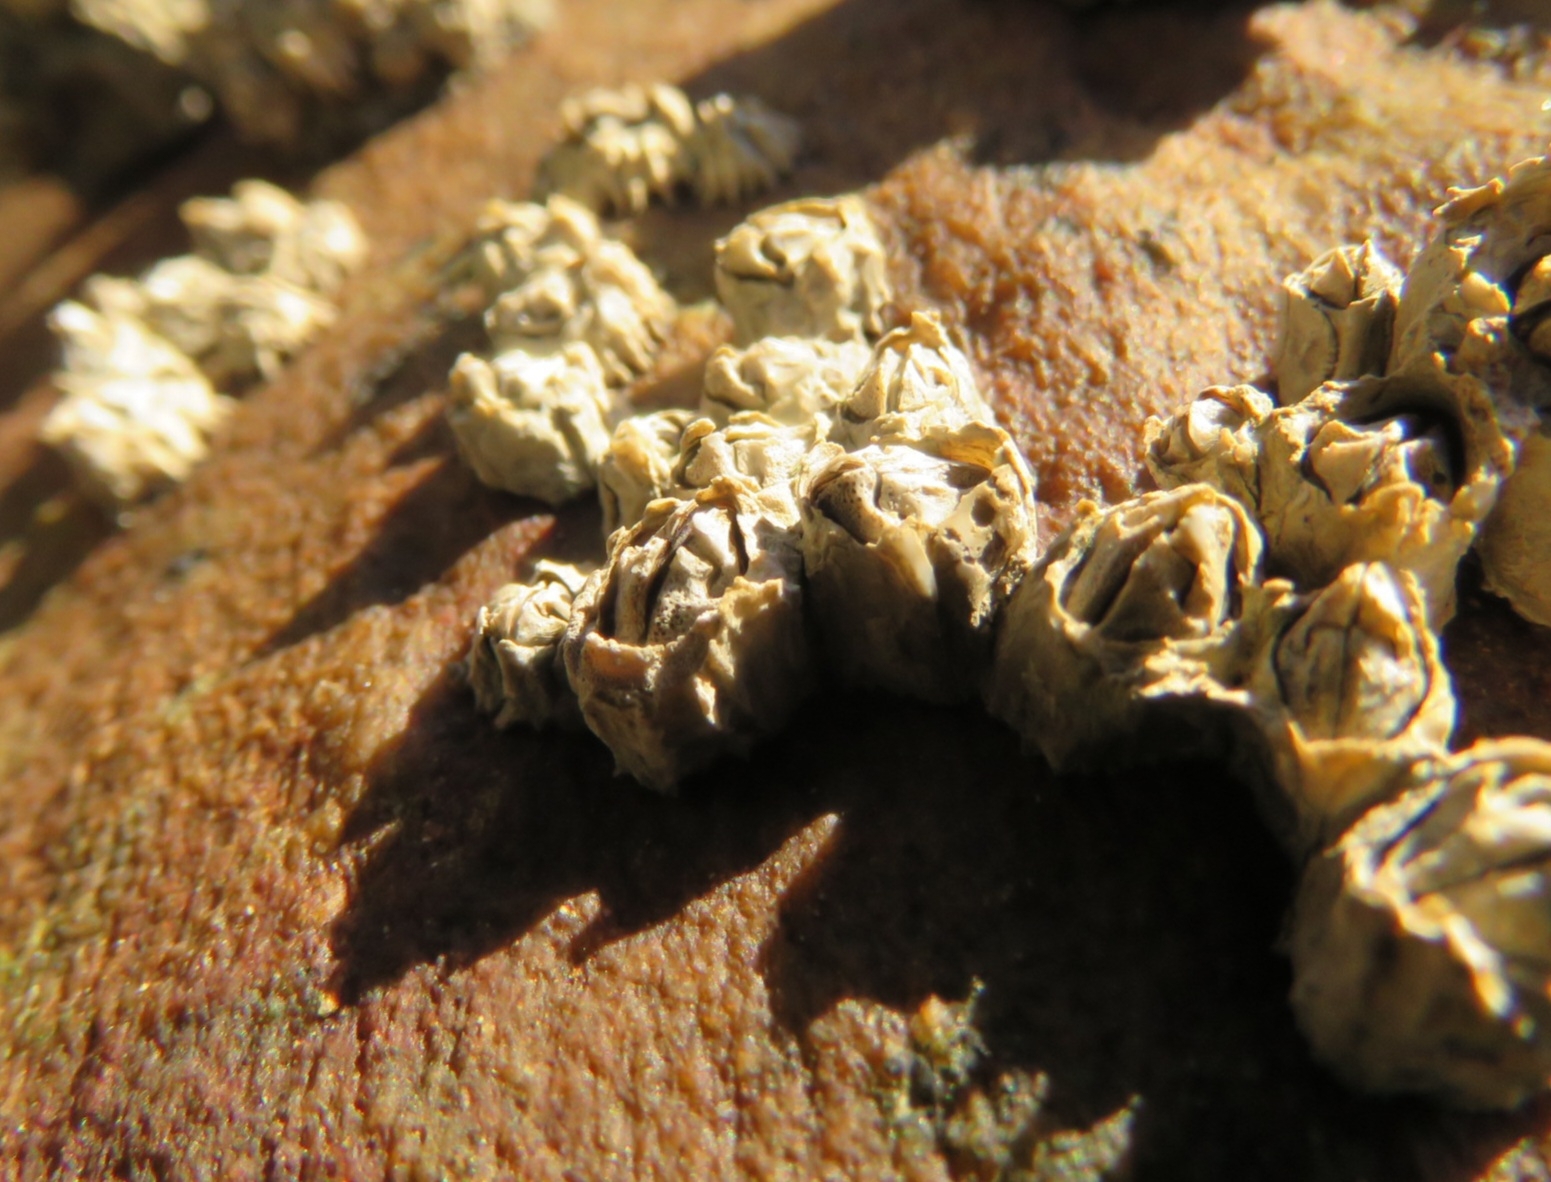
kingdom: Animalia
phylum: Arthropoda
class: Maxillopoda
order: Sessilia
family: Chthamalidae
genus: Chthamalus
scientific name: Chthamalus dentatus
